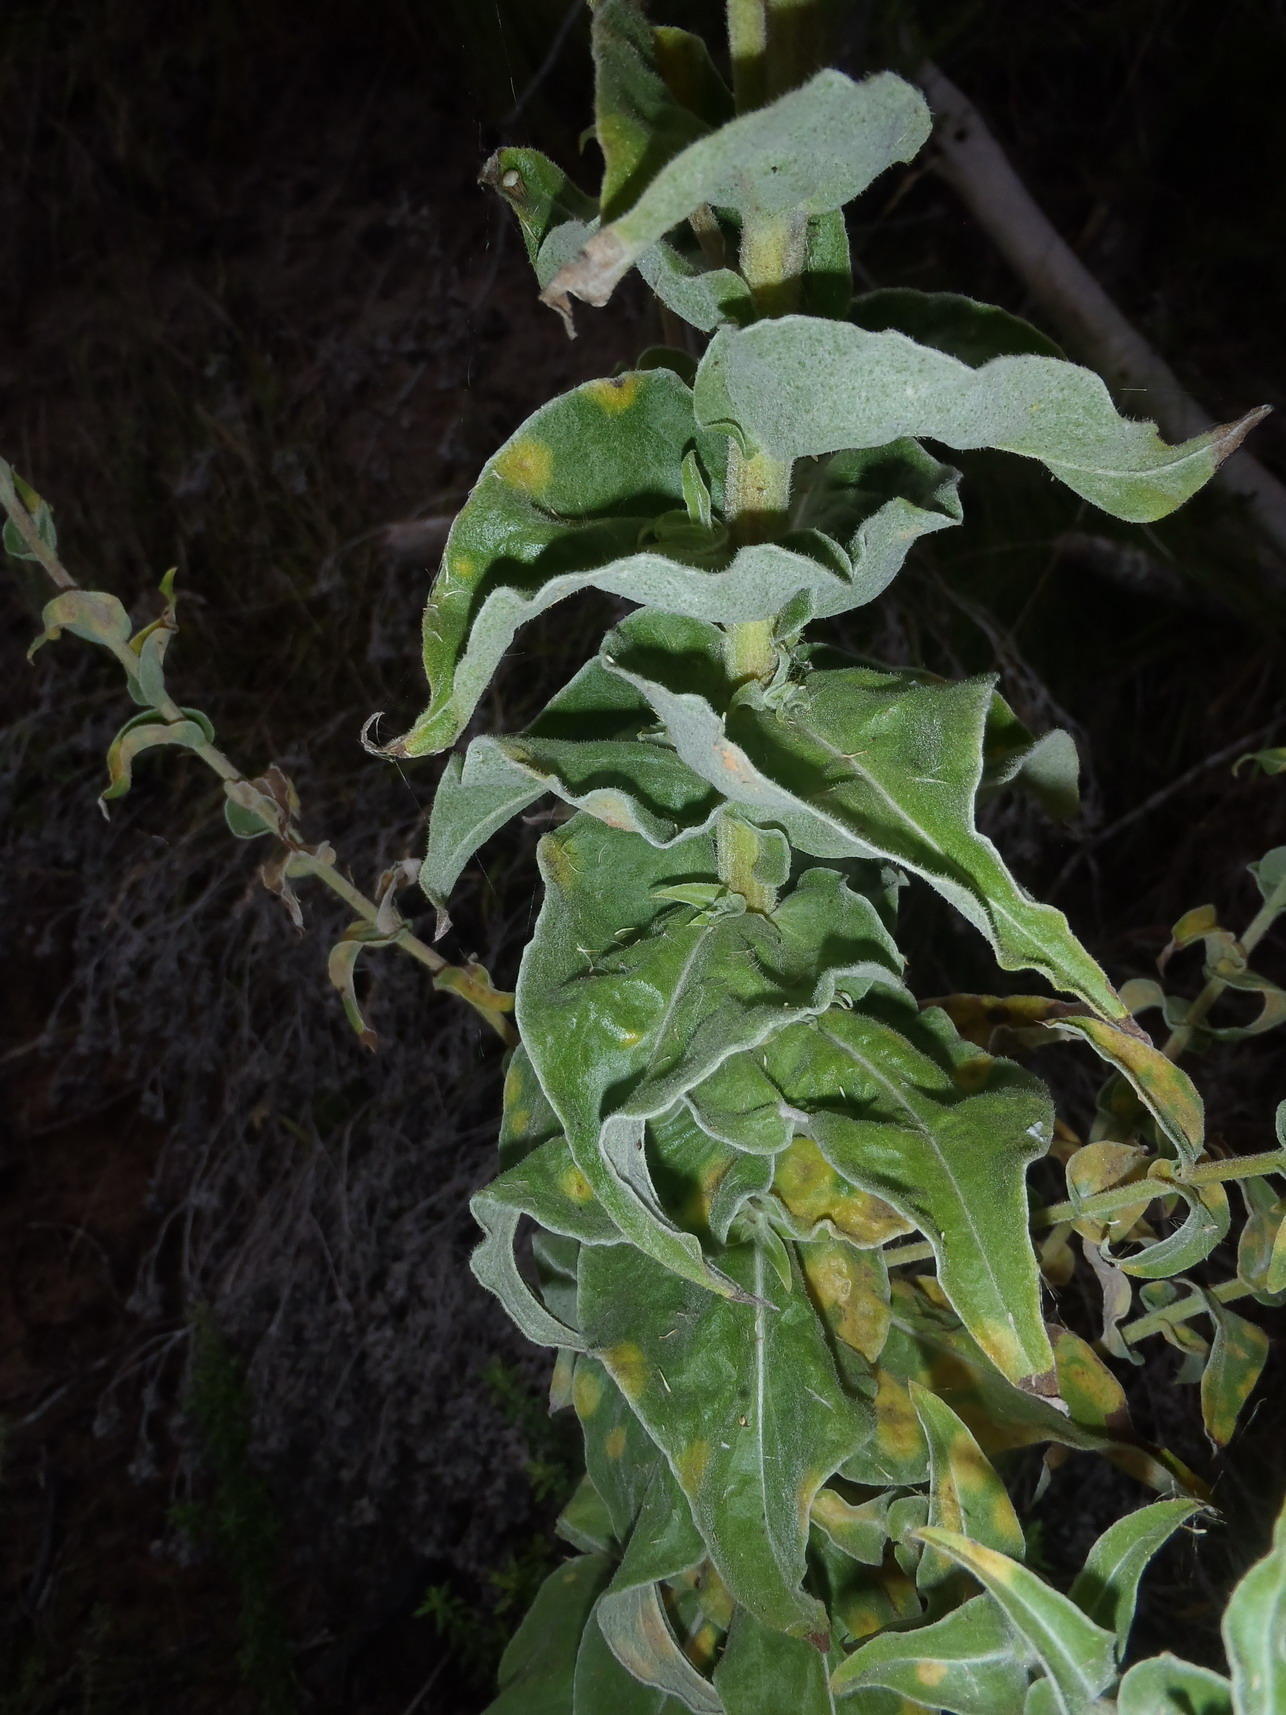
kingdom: Plantae
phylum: Tracheophyta
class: Magnoliopsida
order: Asterales
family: Asteraceae
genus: Helichrysum
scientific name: Helichrysum foetidum
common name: Stinking everlasting
